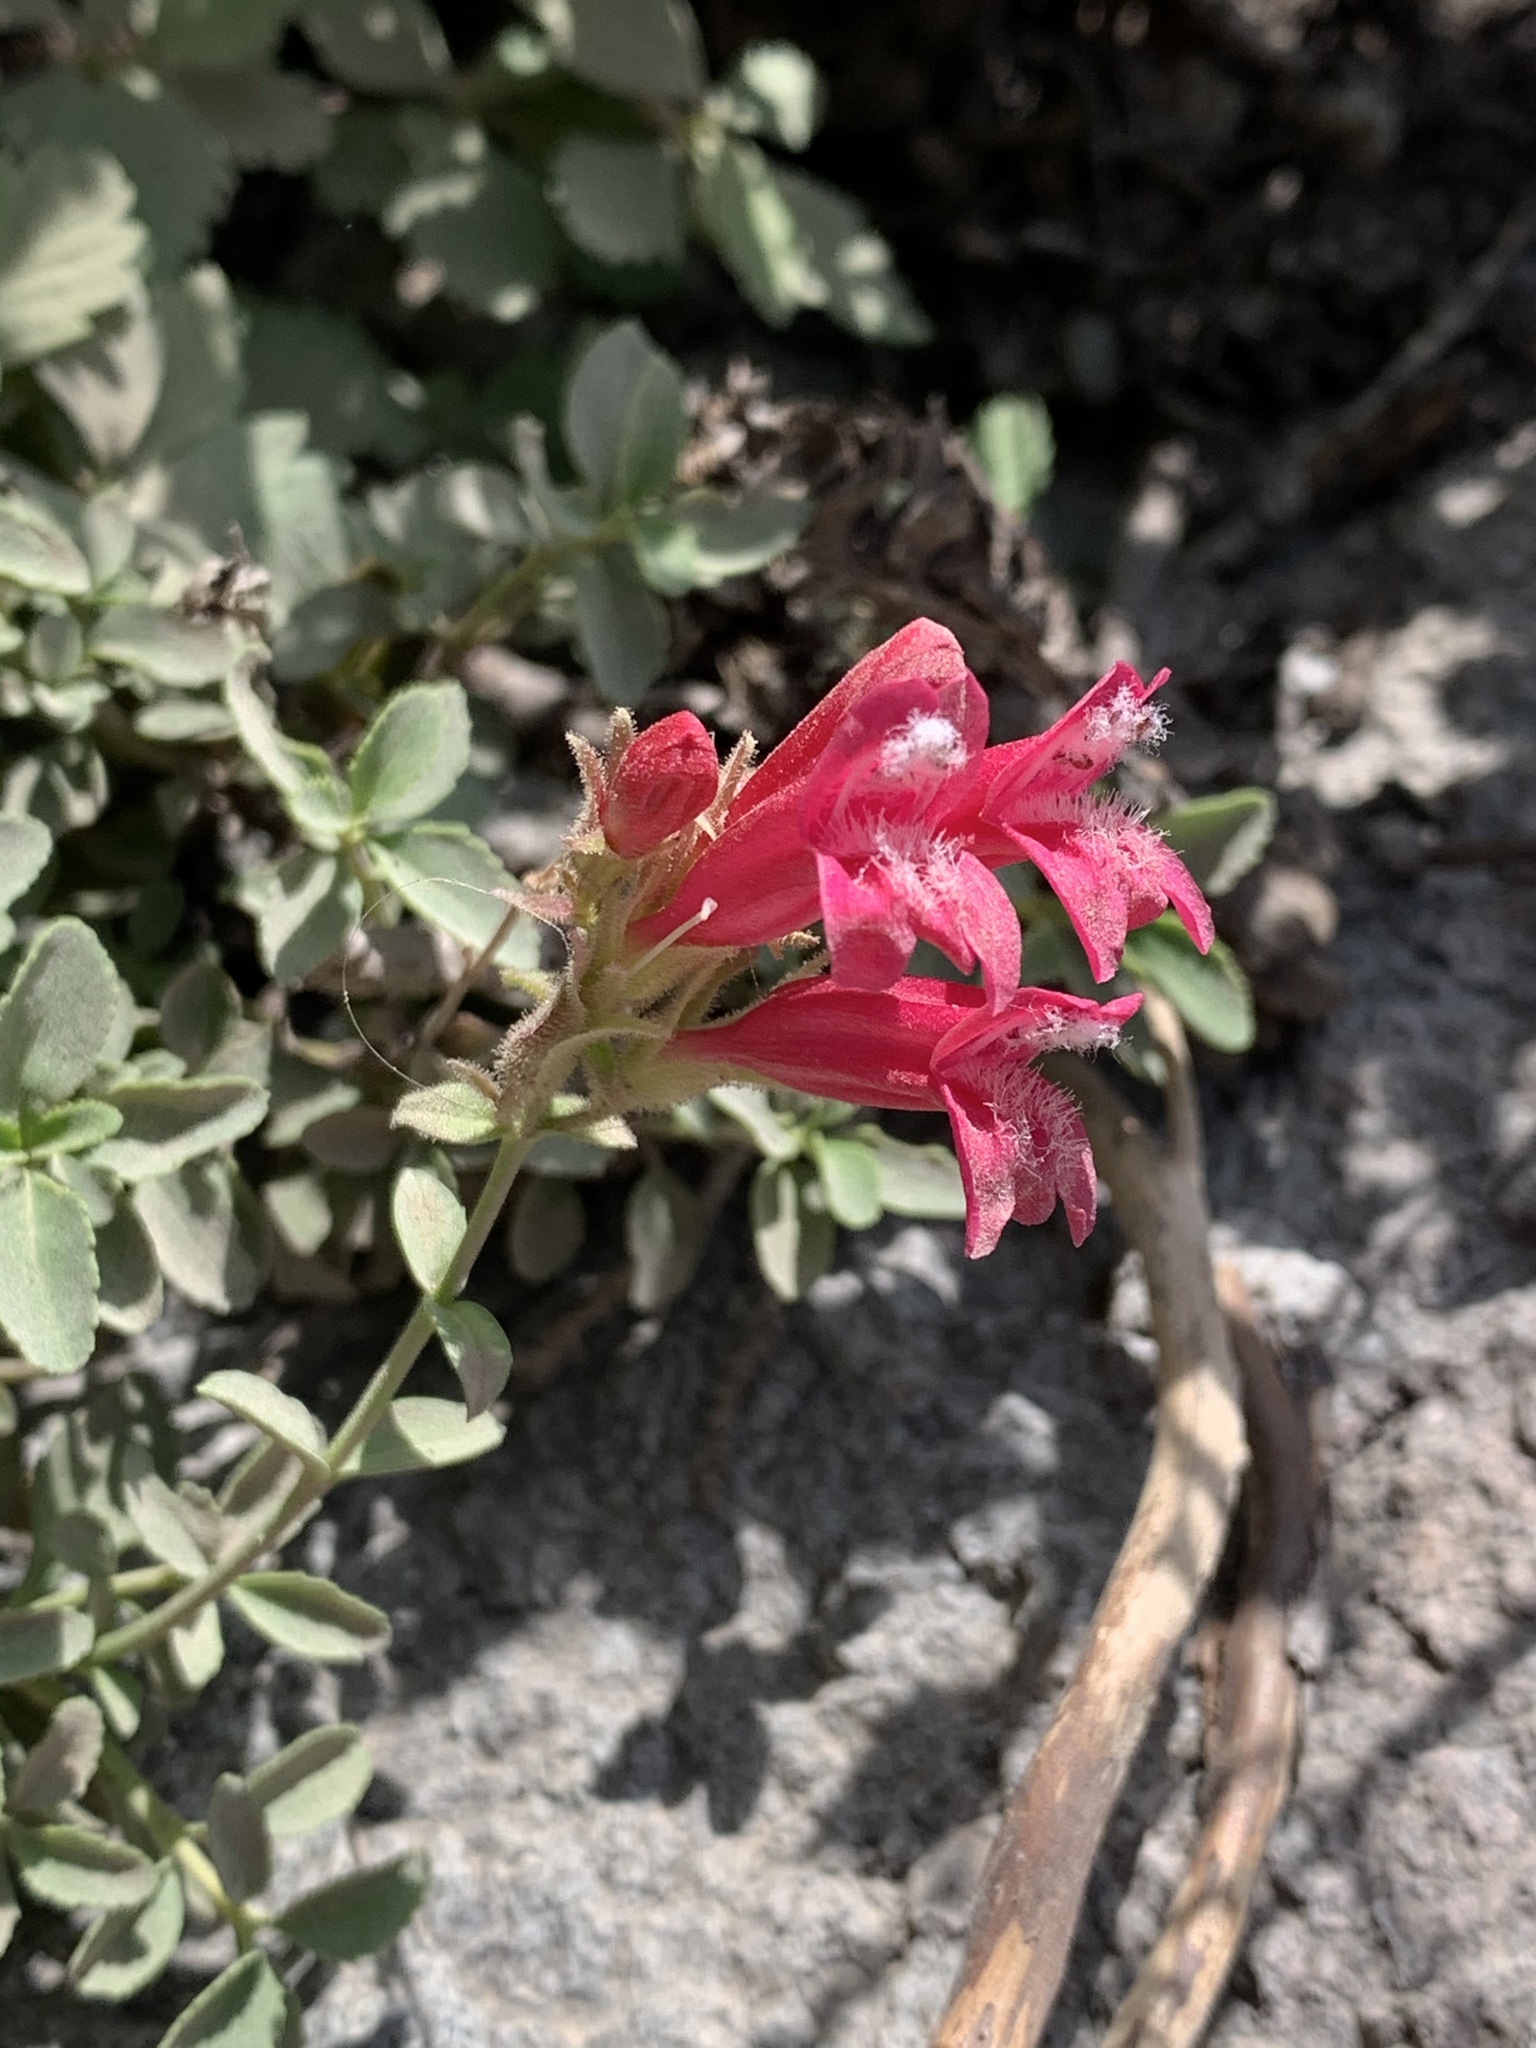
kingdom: Plantae
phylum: Tracheophyta
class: Magnoliopsida
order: Lamiales
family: Plantaginaceae
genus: Penstemon
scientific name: Penstemon newberryi
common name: Mountain-pride
